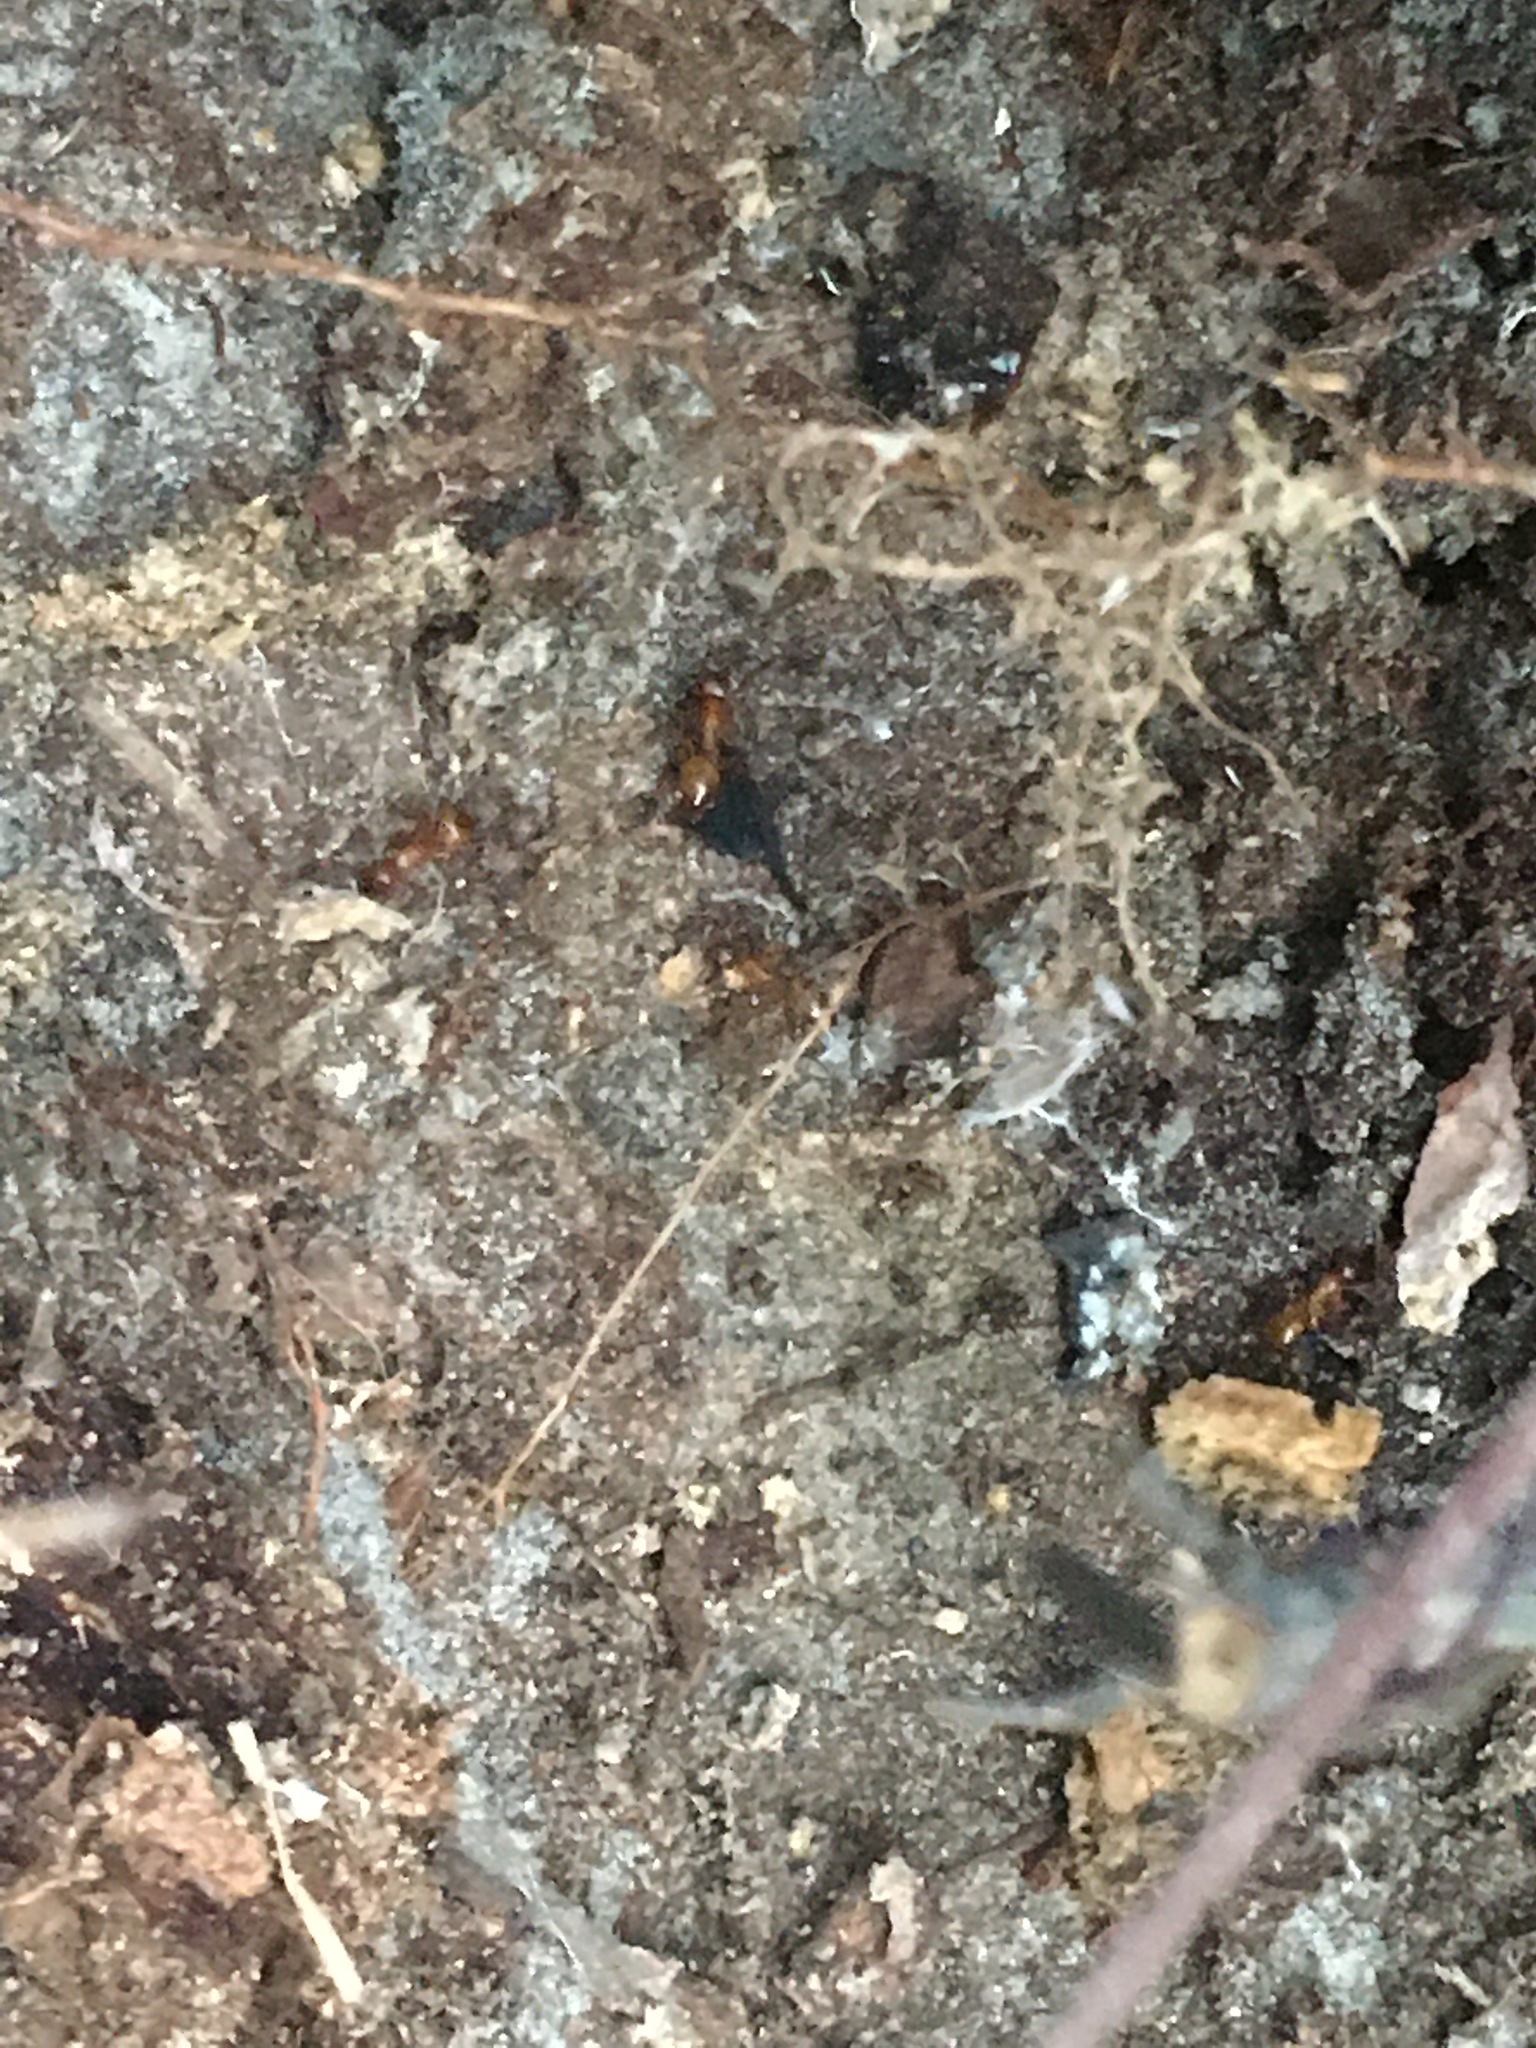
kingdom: Animalia
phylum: Arthropoda
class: Insecta
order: Hymenoptera
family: Formicidae
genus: Camponotus
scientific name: Camponotus castaneus
